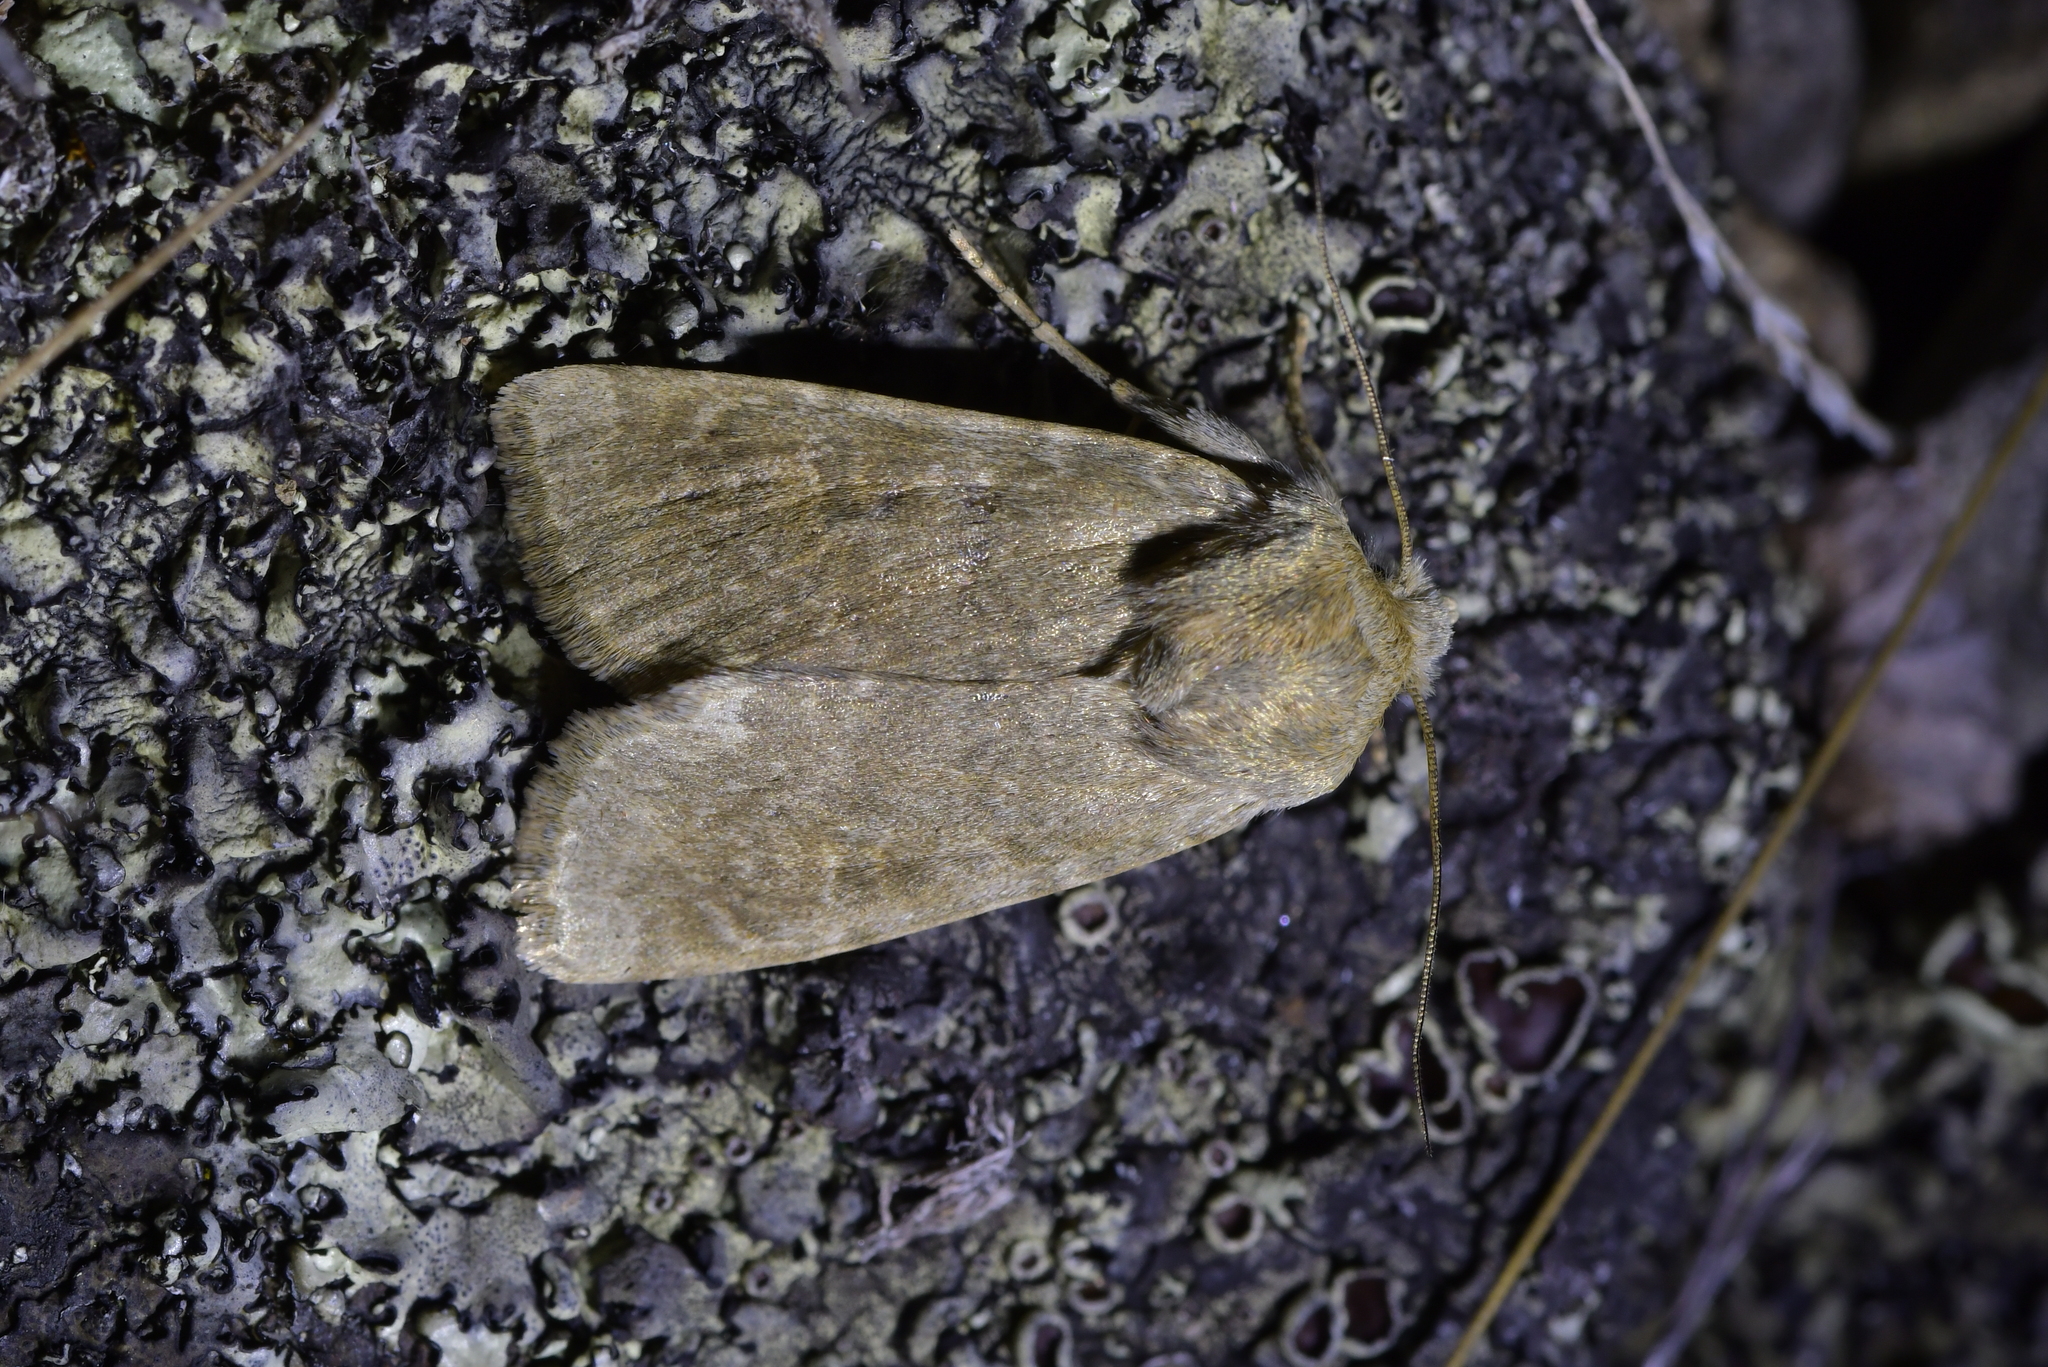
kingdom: Animalia
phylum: Arthropoda
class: Insecta
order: Lepidoptera
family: Noctuidae
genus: Physetica
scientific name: Physetica caerulea
